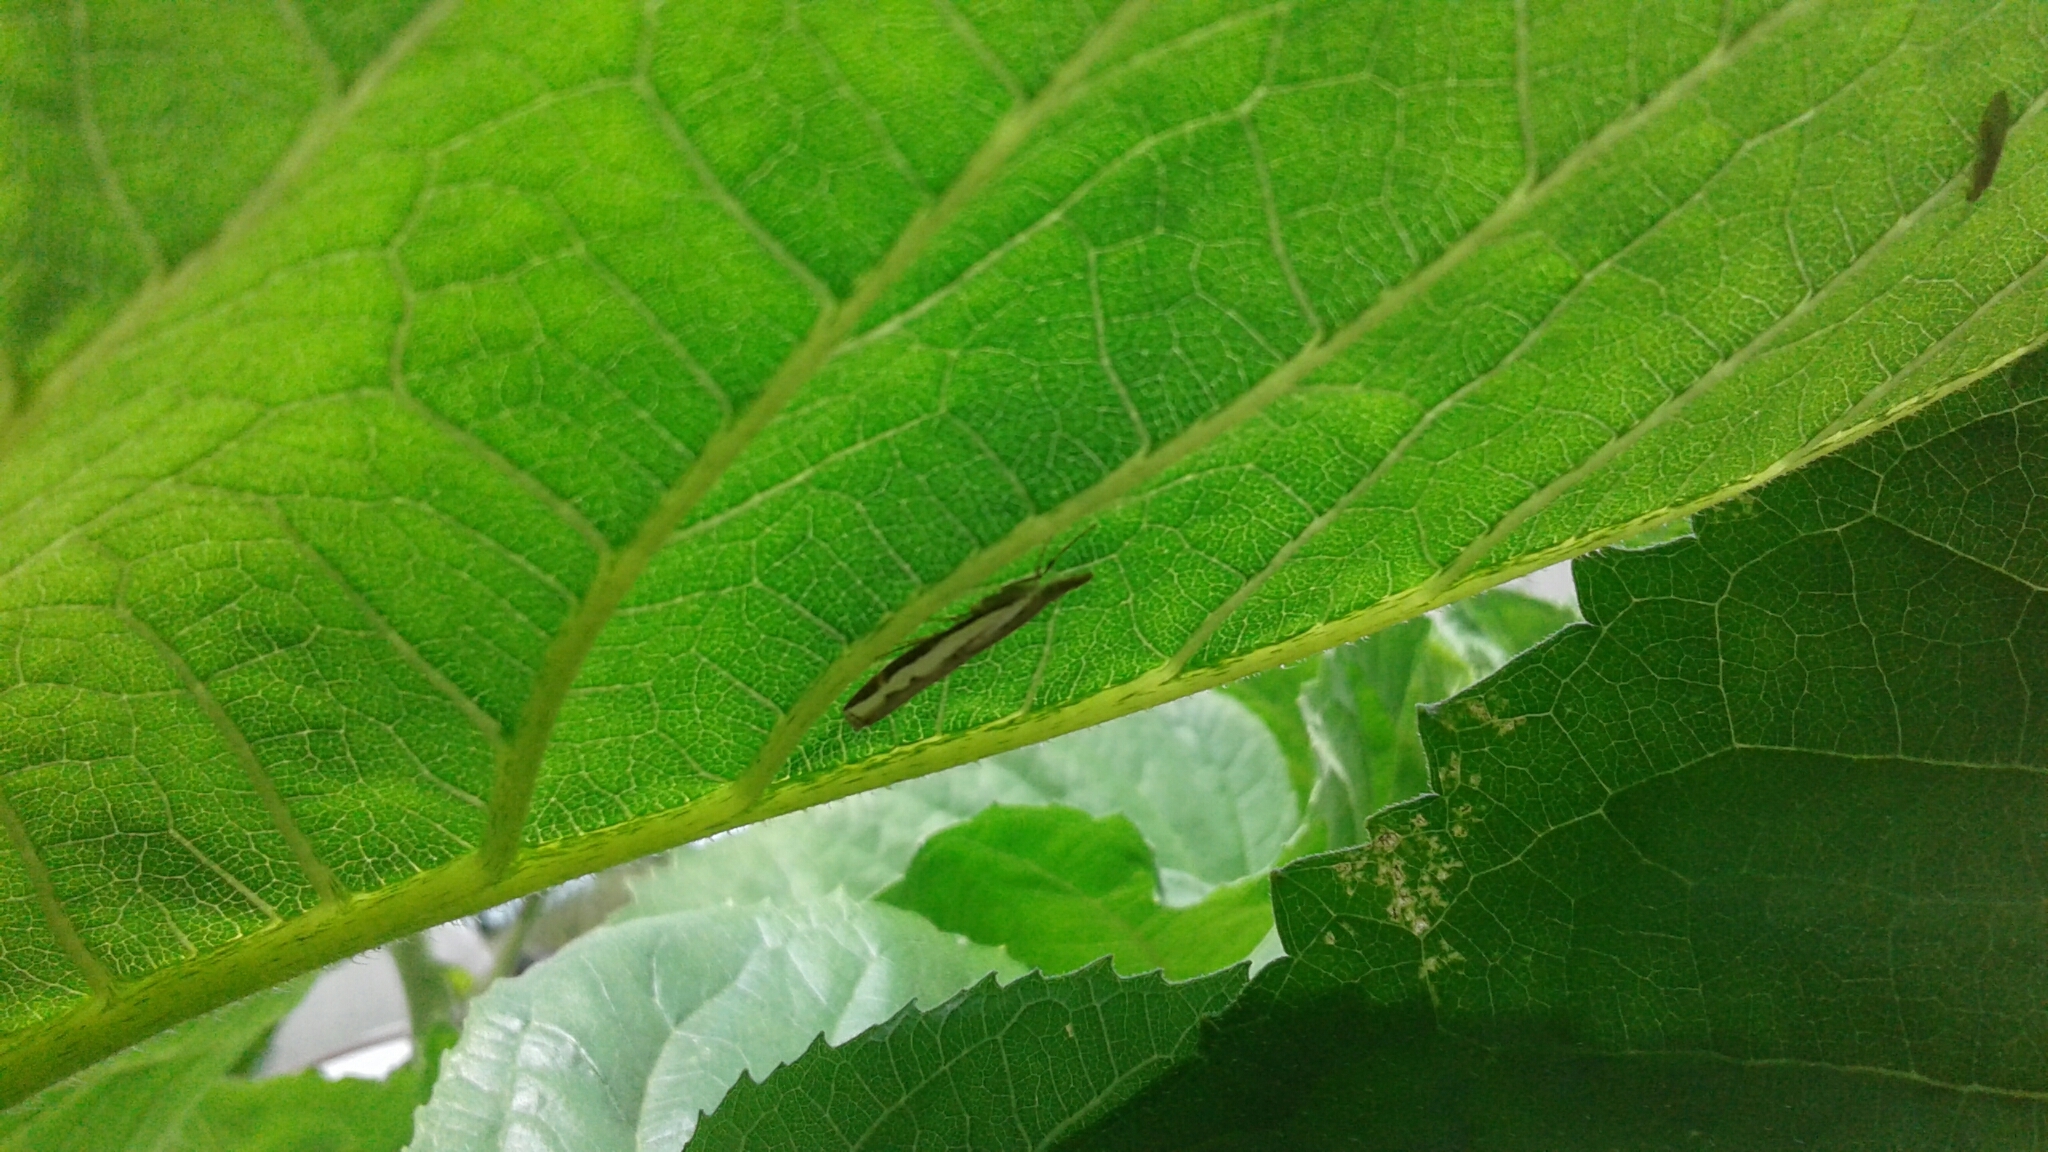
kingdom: Animalia
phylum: Arthropoda
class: Insecta
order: Lepidoptera
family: Crambidae
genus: Orocrambus
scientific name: Orocrambus
